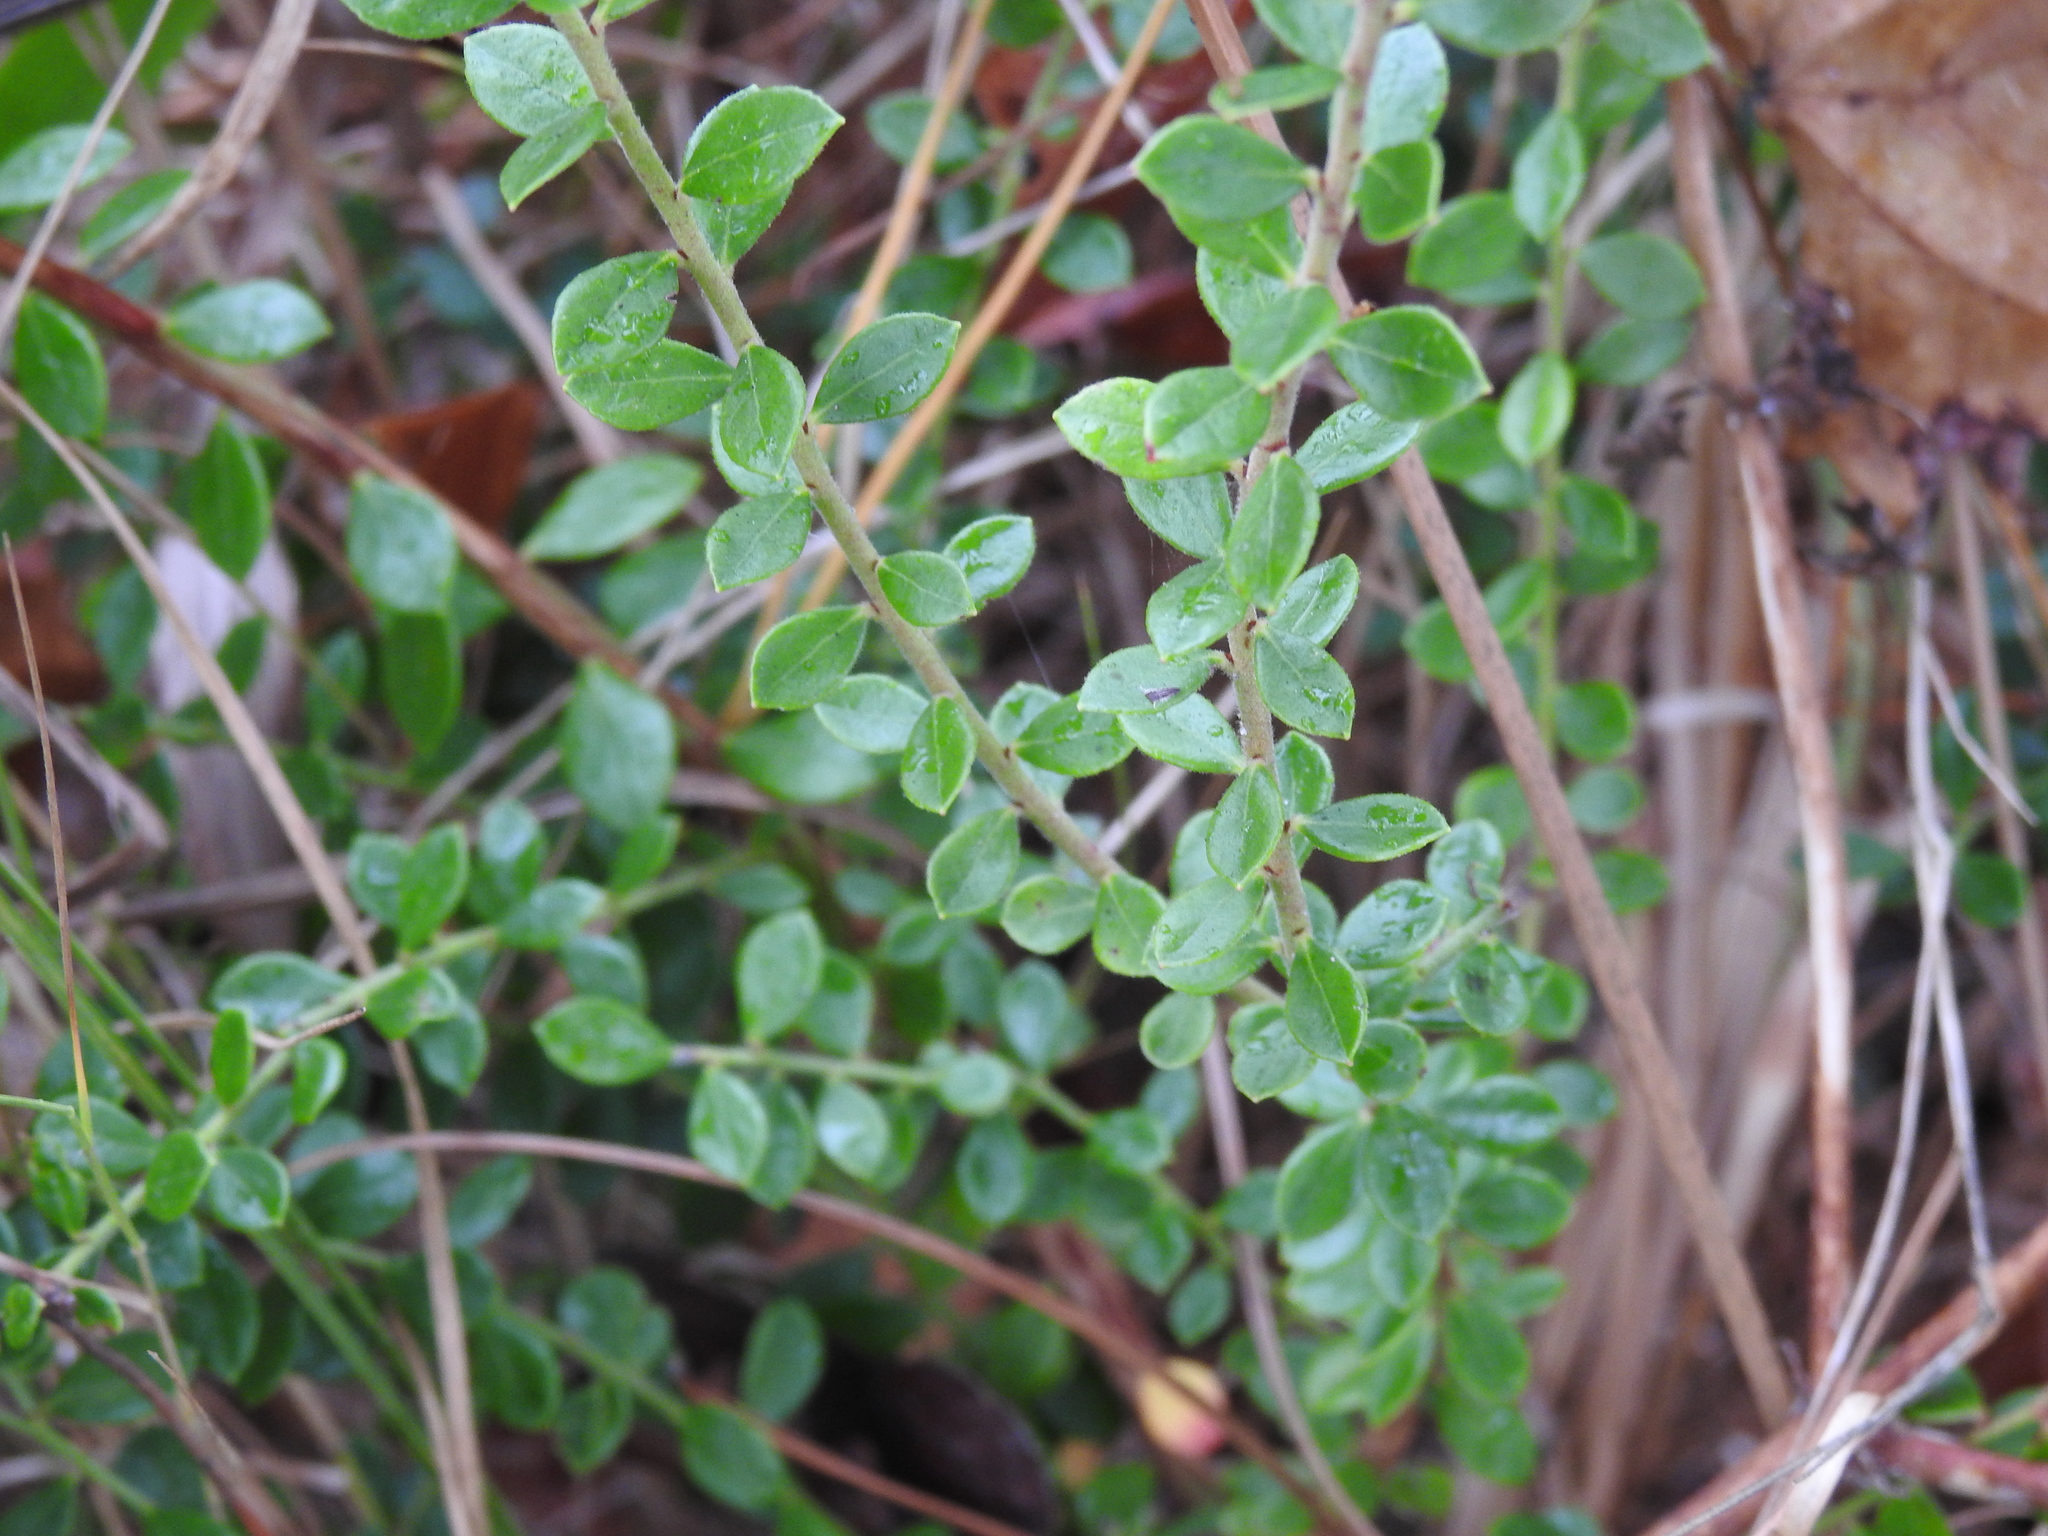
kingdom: Plantae
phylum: Tracheophyta
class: Magnoliopsida
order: Ericales
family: Ericaceae
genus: Vaccinium
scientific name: Vaccinium myrsinites
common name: Evergreen blueberry
